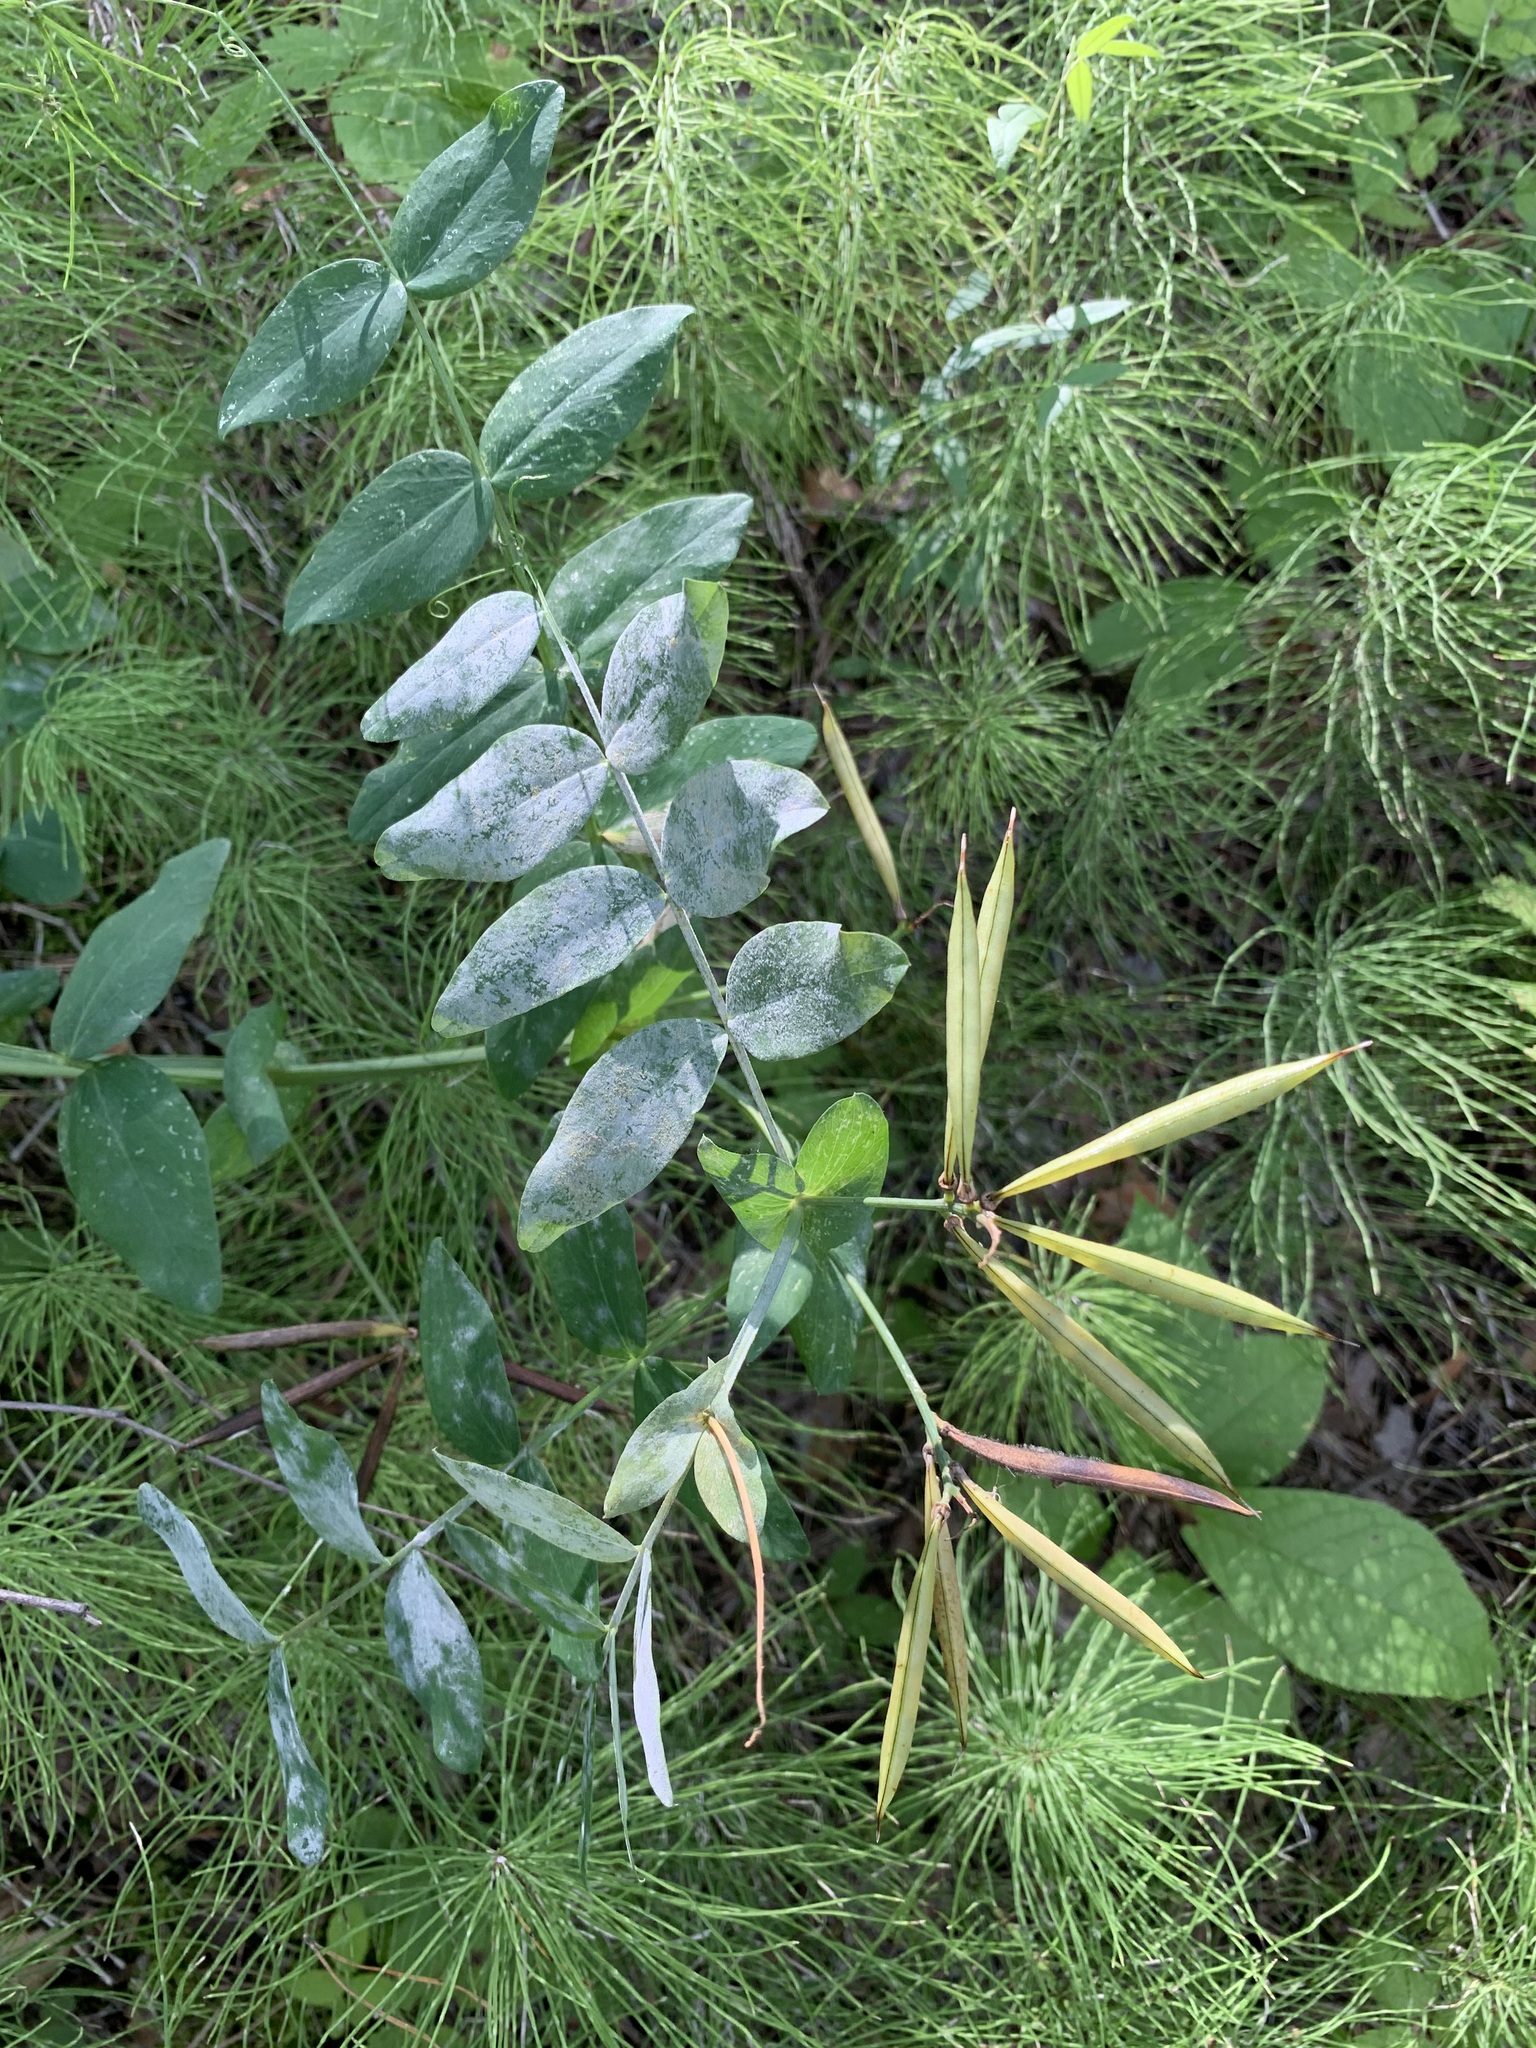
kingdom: Plantae
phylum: Tracheophyta
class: Magnoliopsida
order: Fabales
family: Fabaceae
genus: Lathyrus
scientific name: Lathyrus pisiformis
